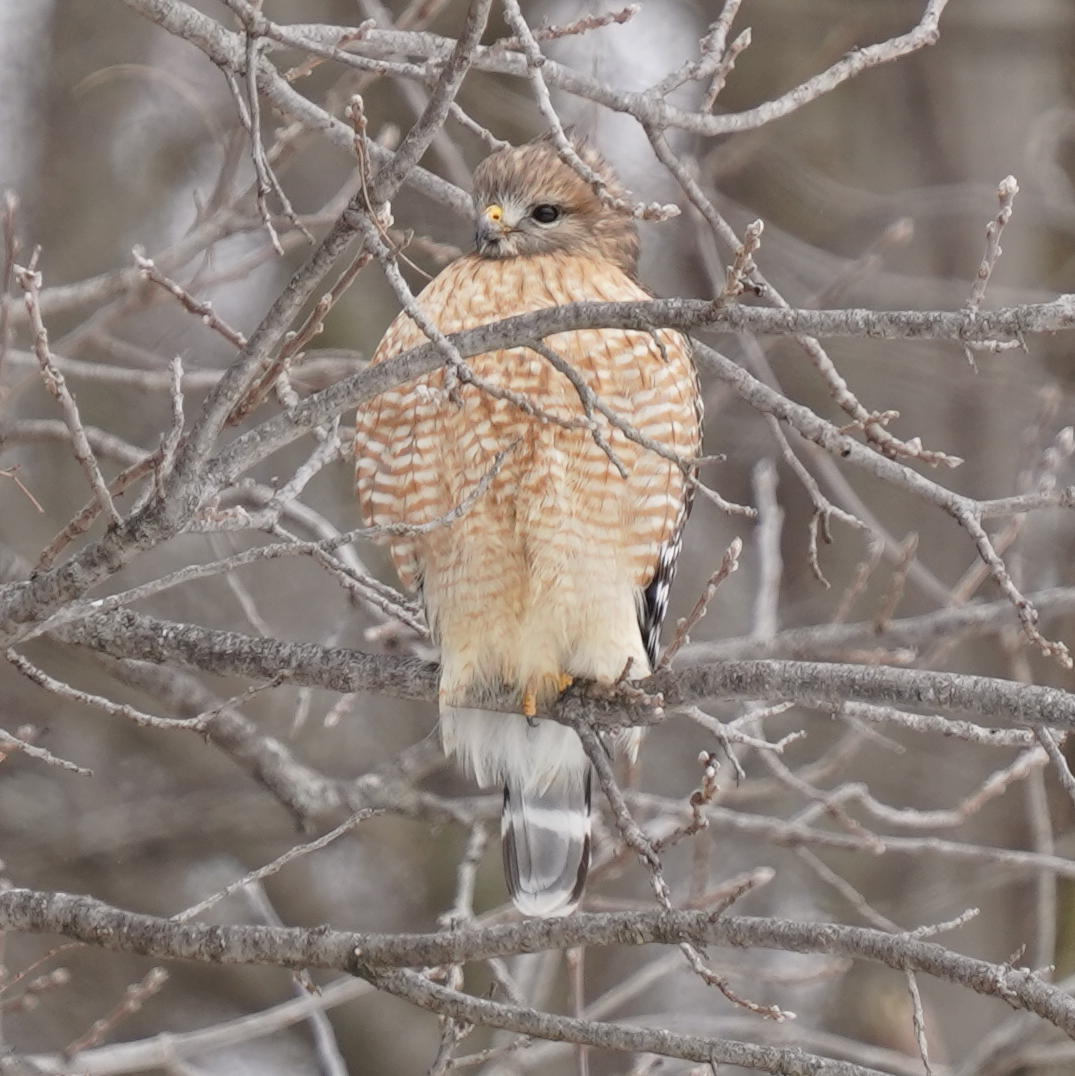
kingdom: Animalia
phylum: Chordata
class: Aves
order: Accipitriformes
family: Accipitridae
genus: Buteo
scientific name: Buteo lineatus
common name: Red-shouldered hawk
